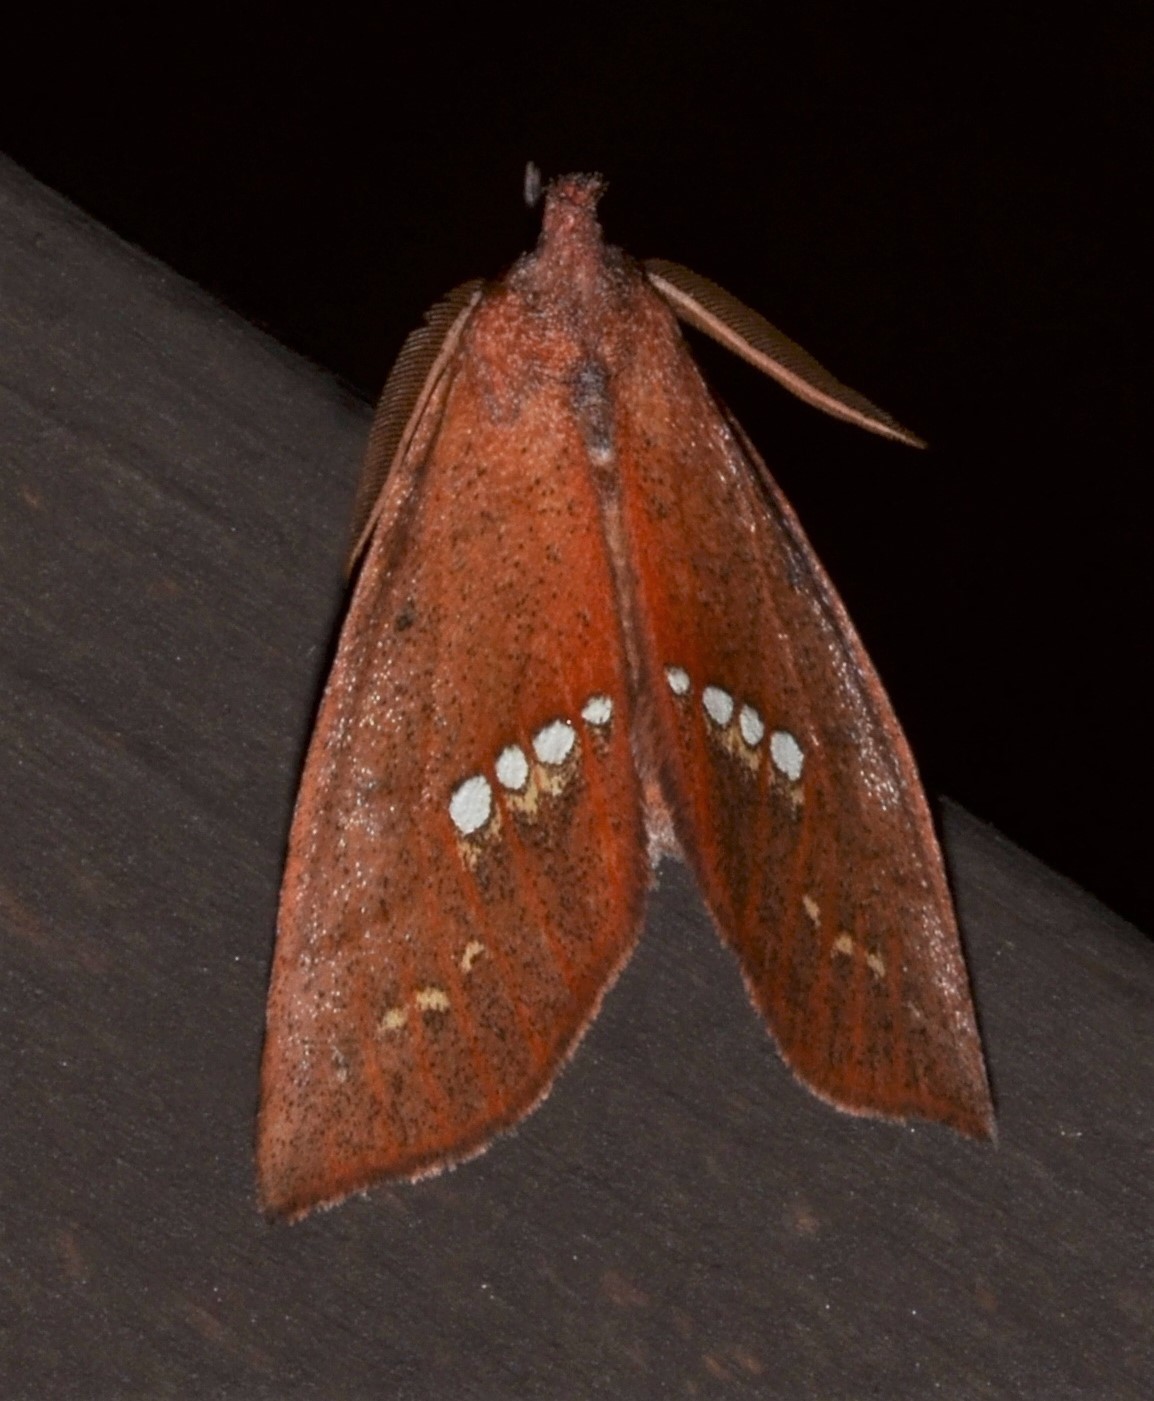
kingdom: Animalia
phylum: Arthropoda
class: Insecta
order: Lepidoptera
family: Erebidae
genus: Hypsoropha
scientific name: Hypsoropha monilis
